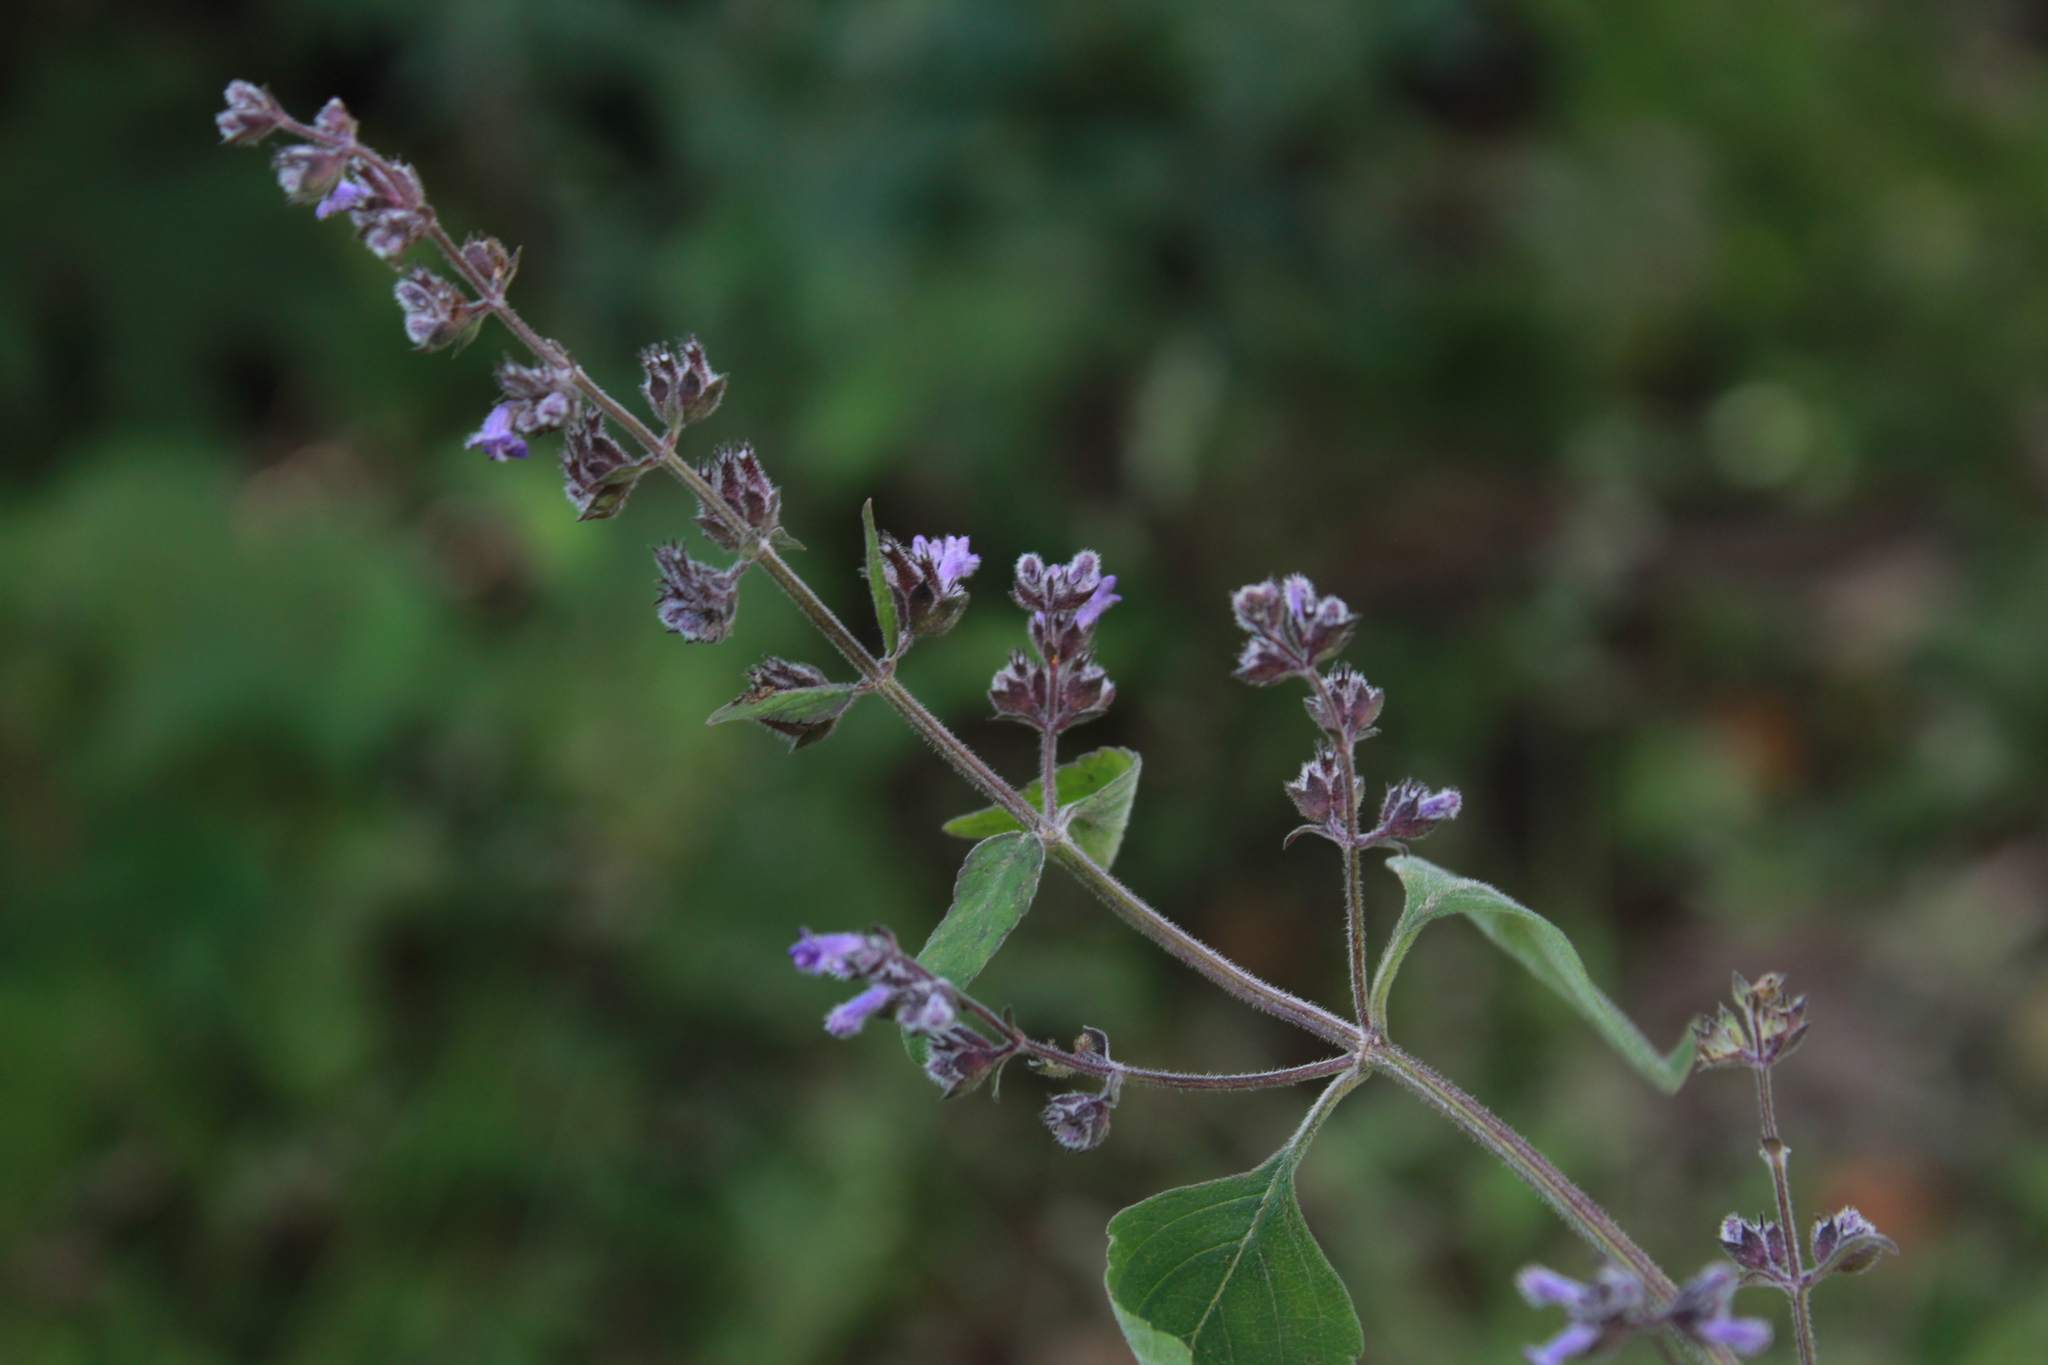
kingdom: Plantae
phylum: Tracheophyta
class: Magnoliopsida
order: Lamiales
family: Lamiaceae
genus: Cantinoa
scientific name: Cantinoa mutabilis
